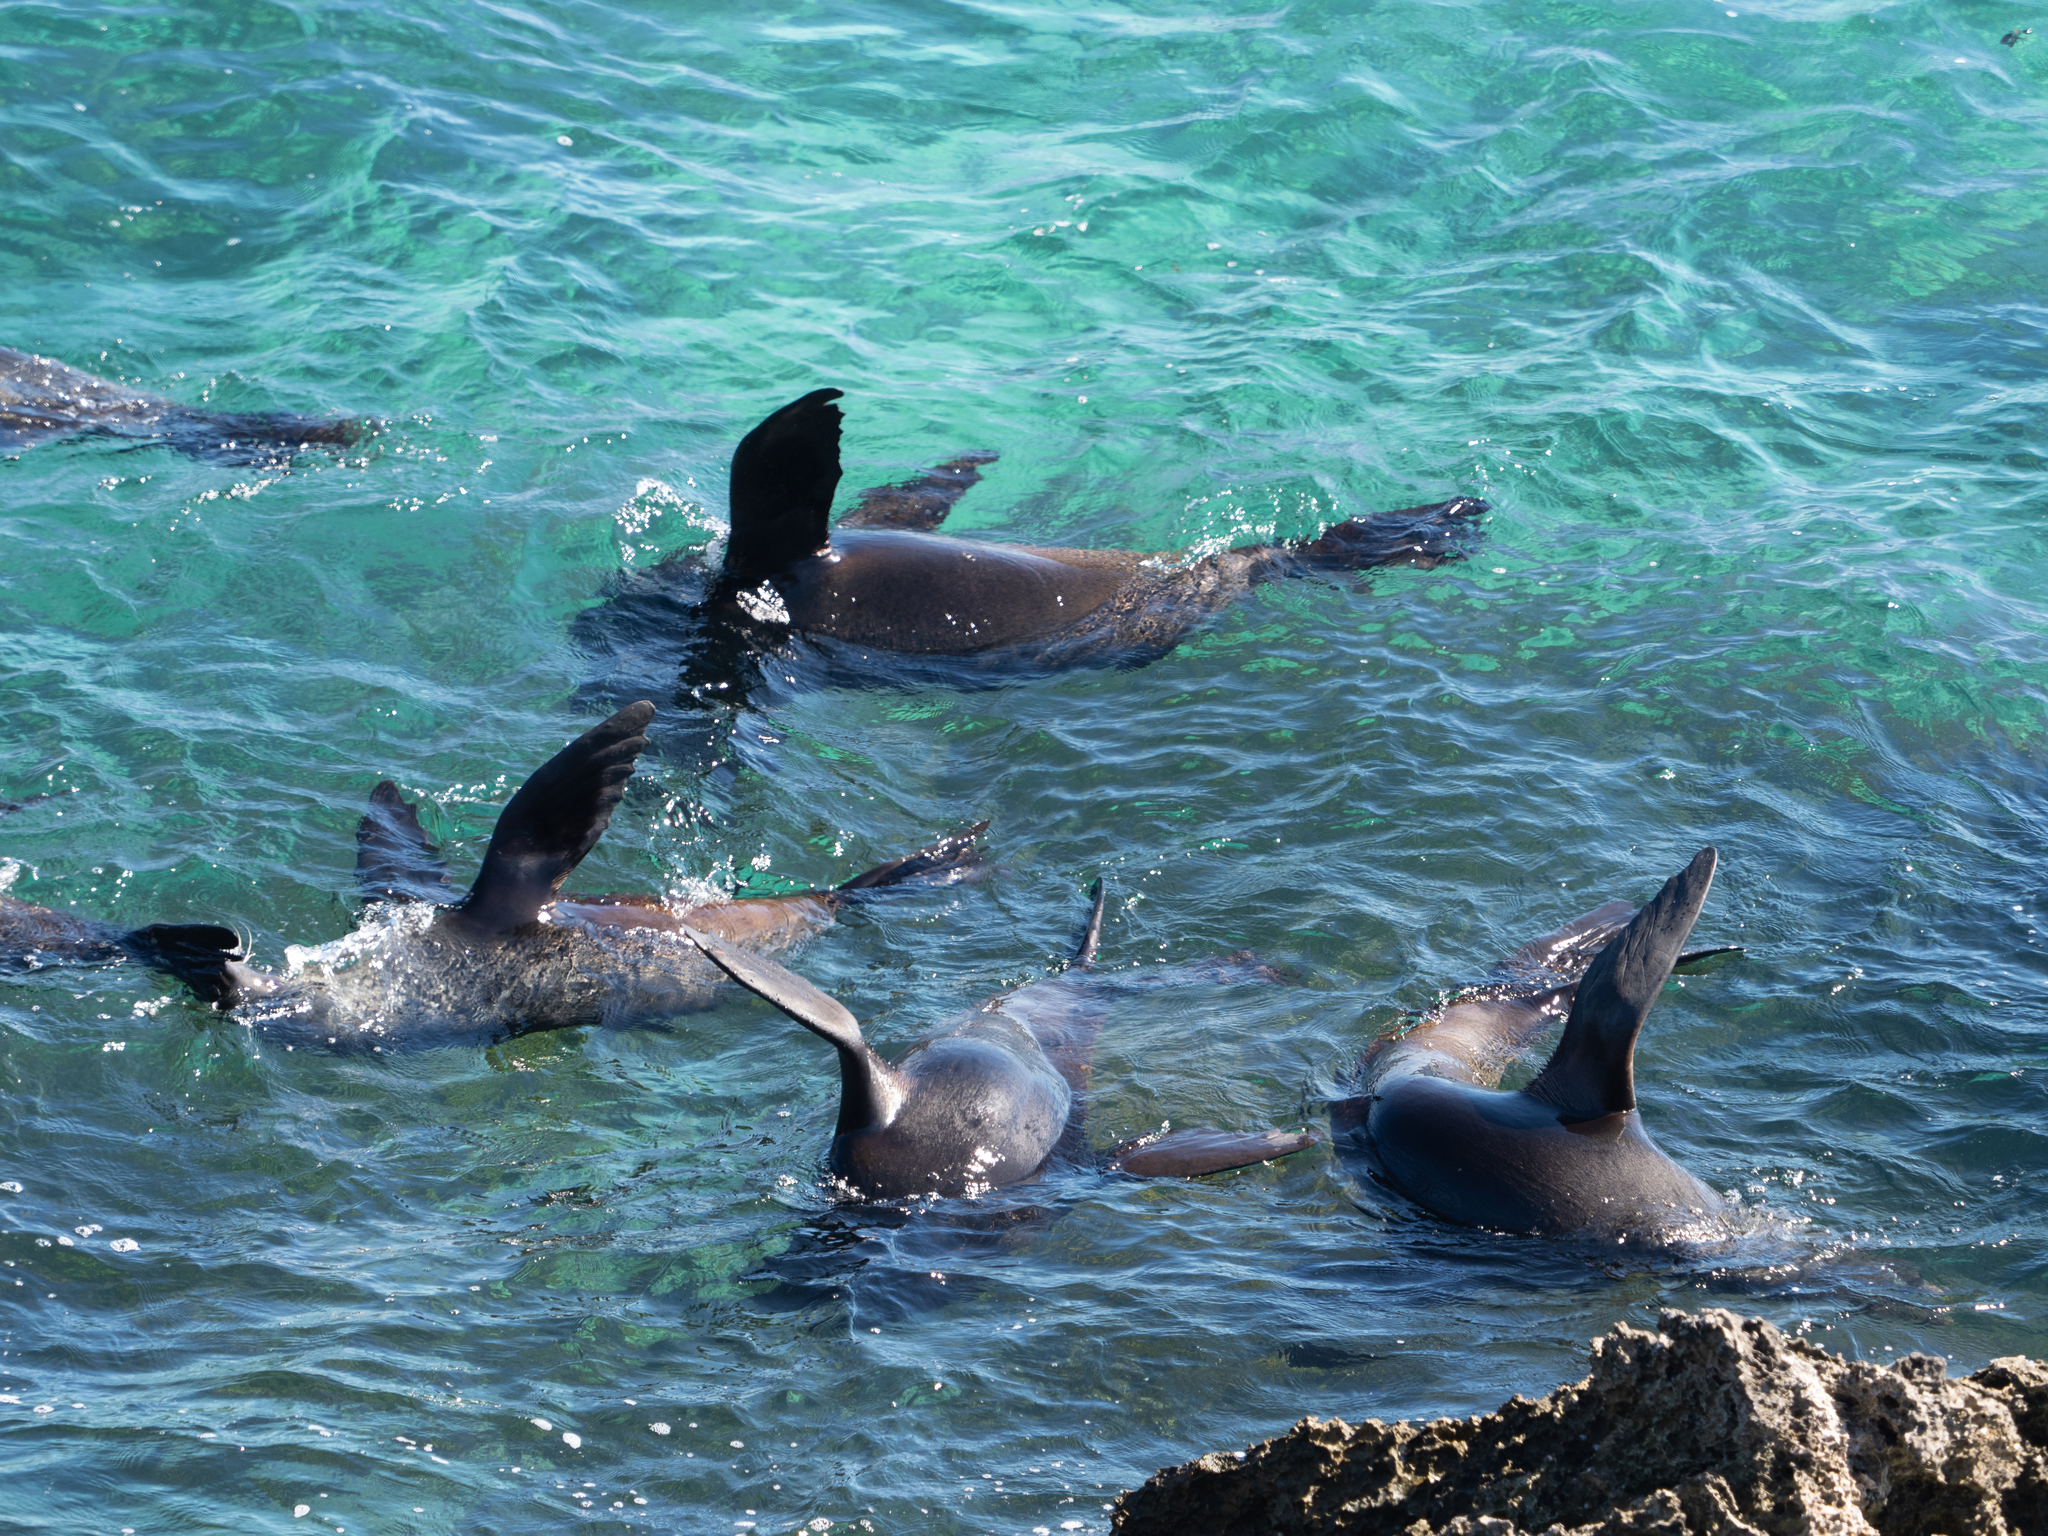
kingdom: Animalia
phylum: Chordata
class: Mammalia
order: Carnivora
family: Otariidae
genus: Arctocephalus
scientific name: Arctocephalus forsteri
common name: New zealand fur seal
